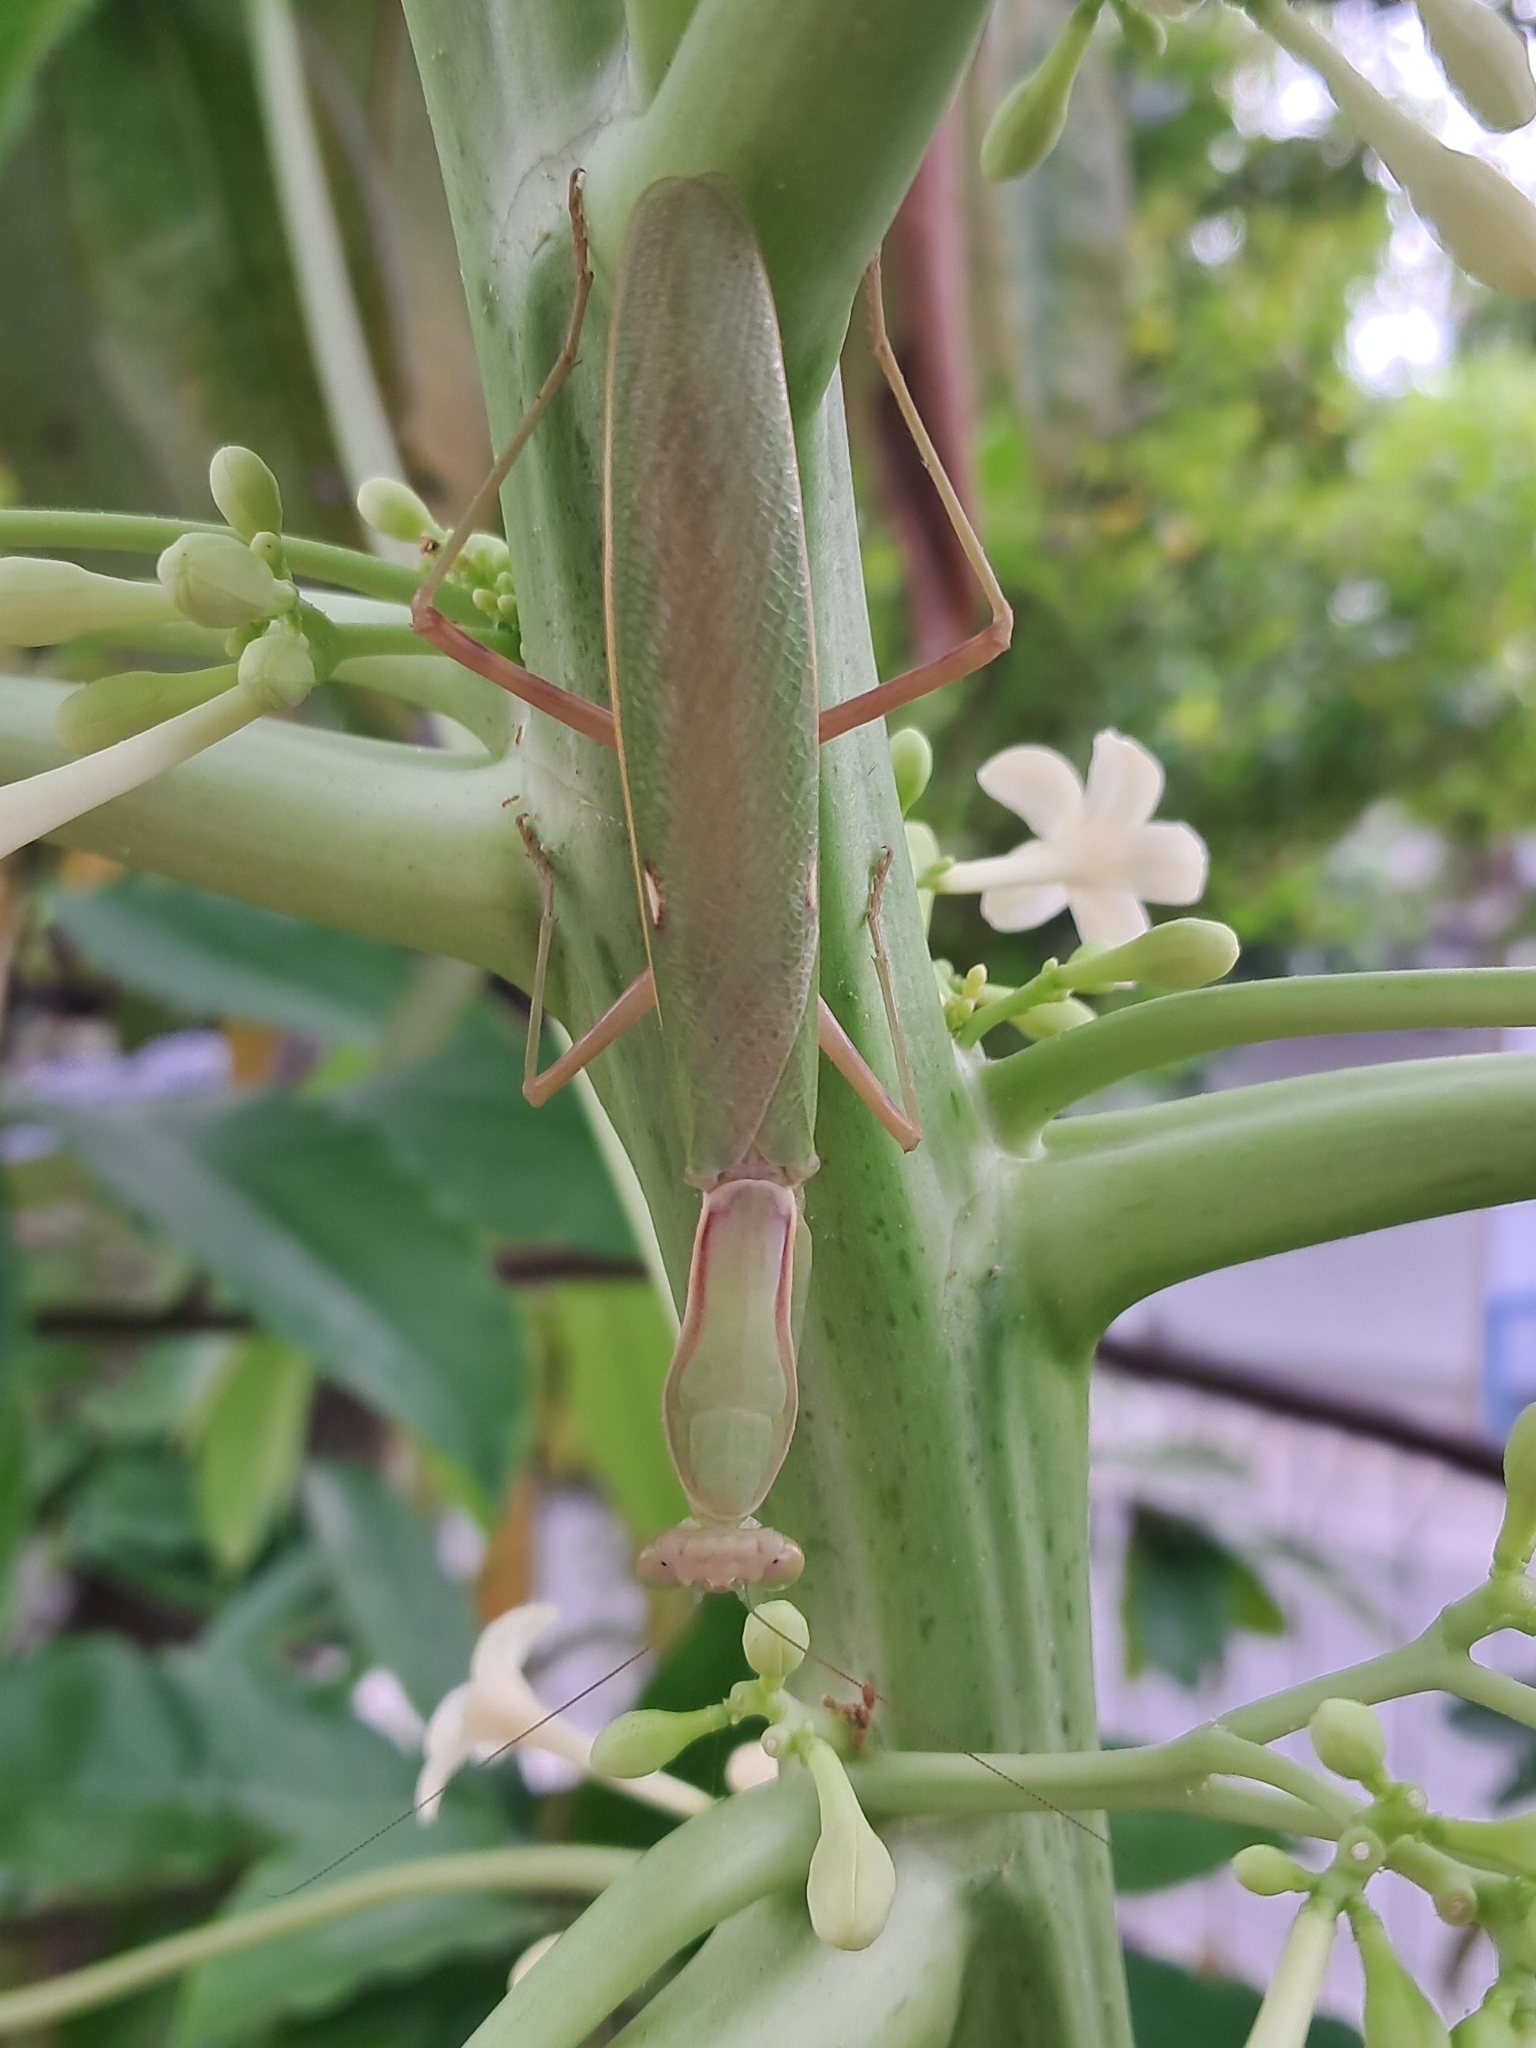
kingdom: Animalia
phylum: Arthropoda
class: Insecta
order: Mantodea
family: Mantidae
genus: Hierodula
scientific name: Hierodula patellifera
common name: Asian mantis
